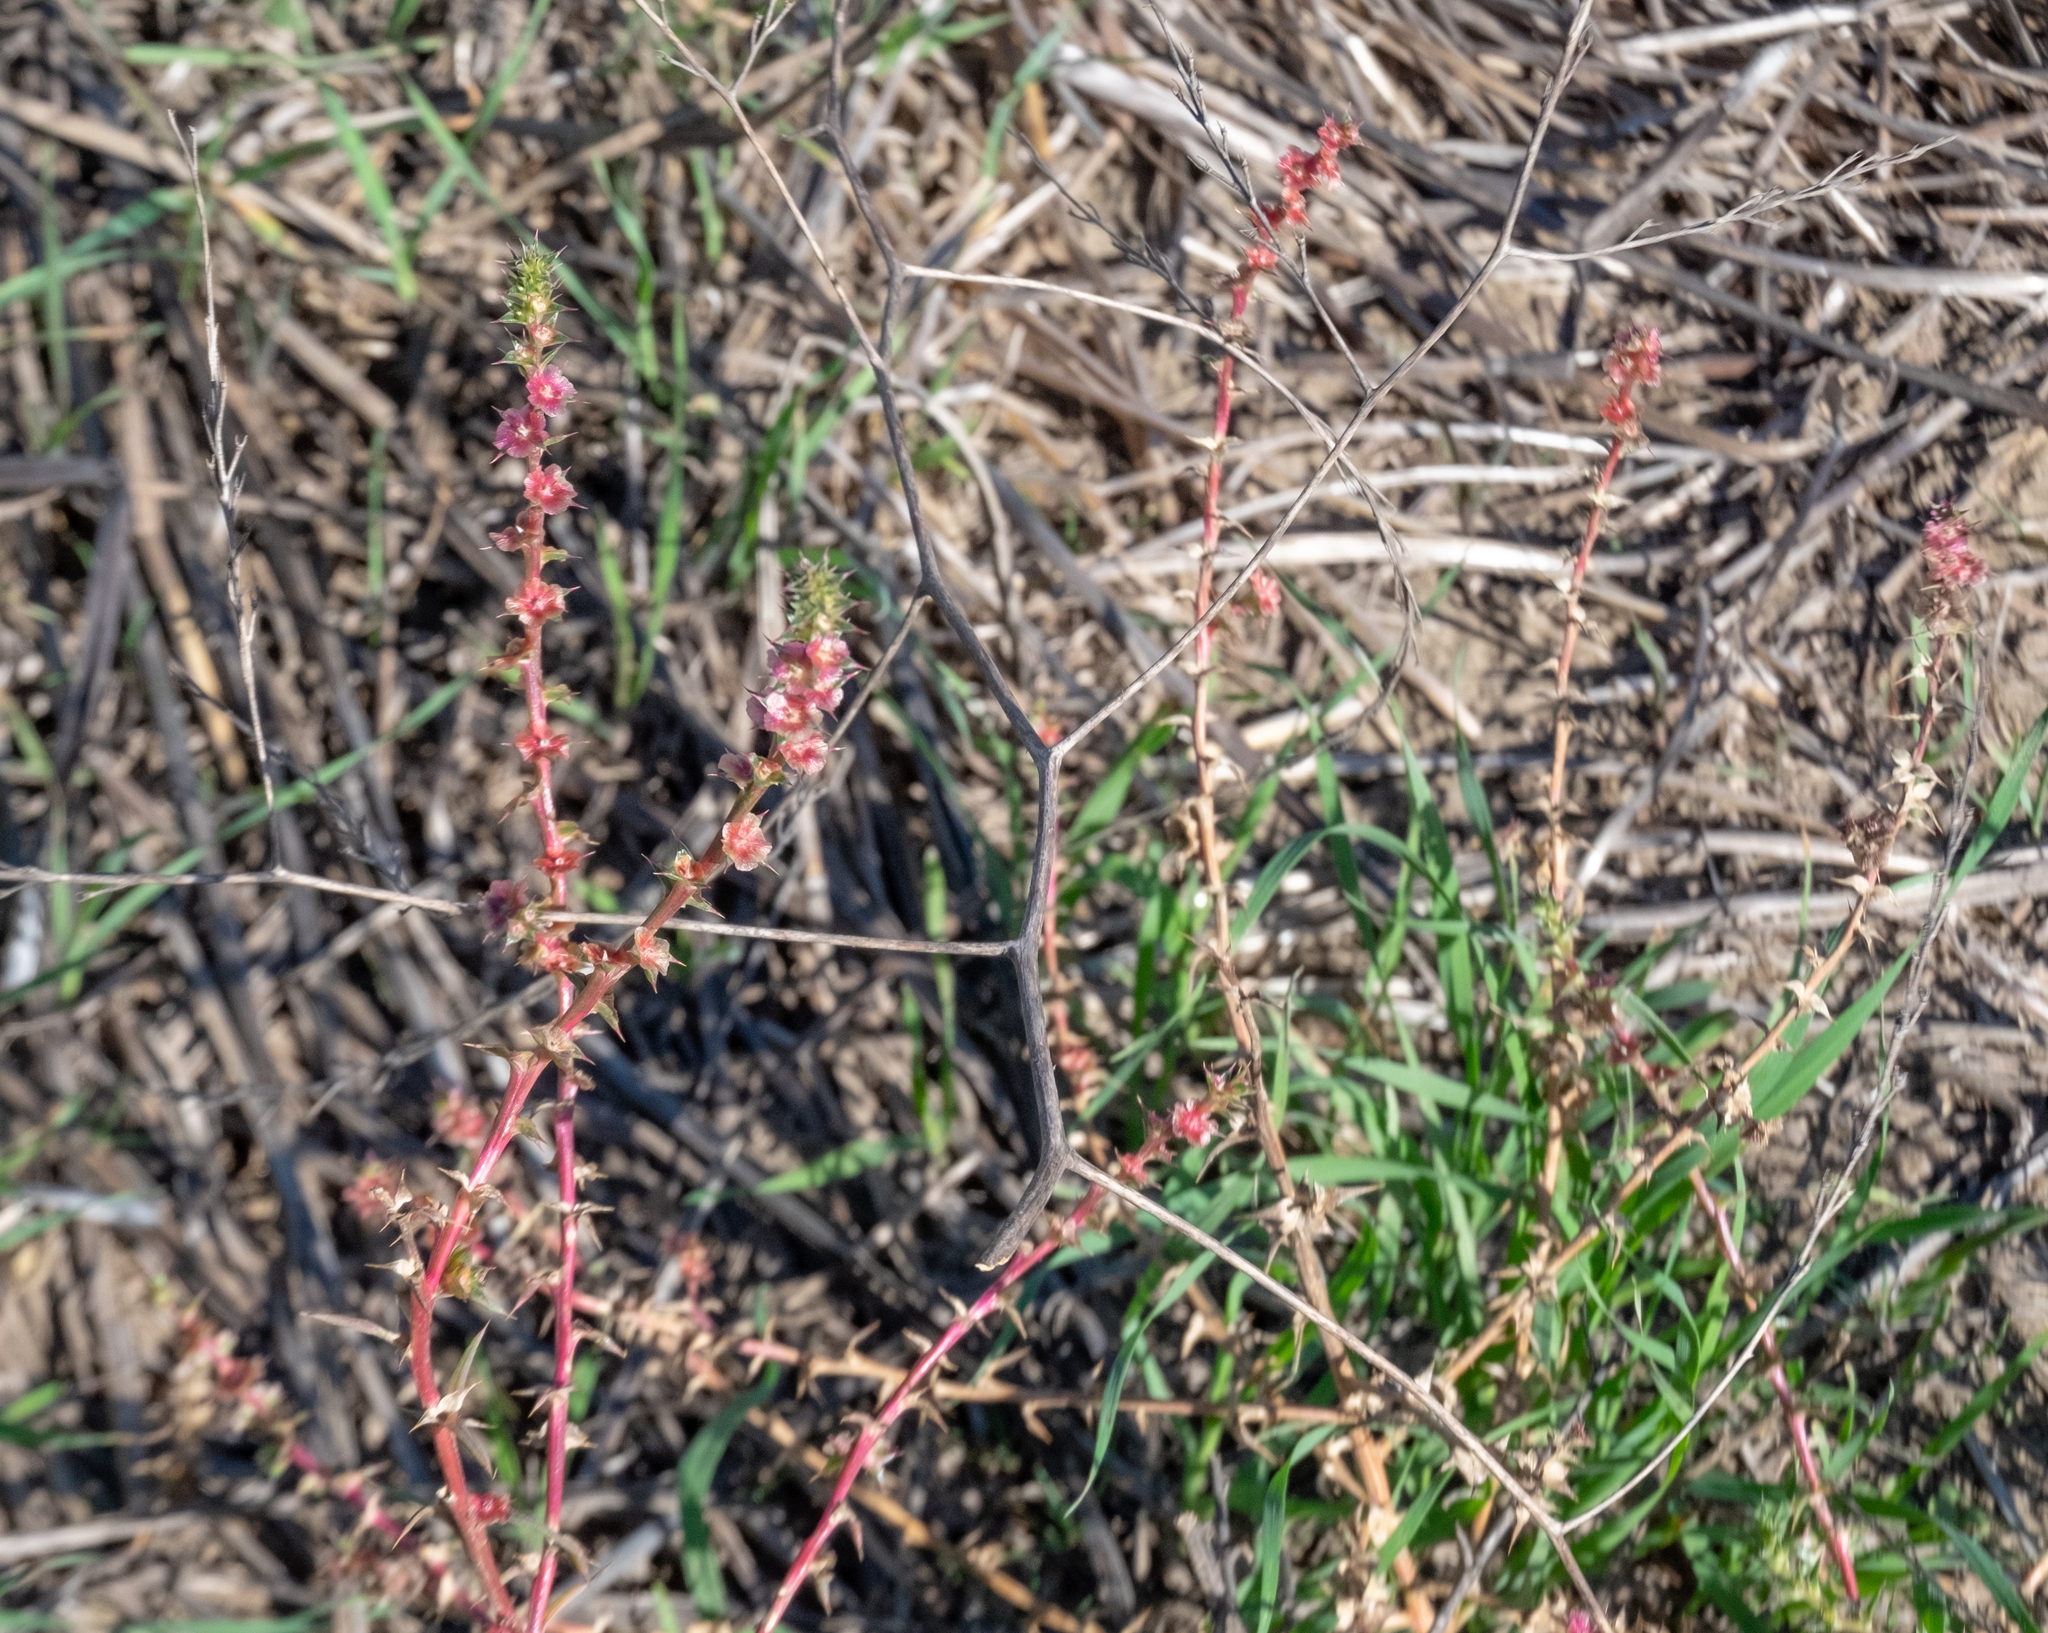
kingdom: Plantae
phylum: Tracheophyta
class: Magnoliopsida
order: Caryophyllales
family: Amaranthaceae
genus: Salsola
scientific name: Salsola australis
